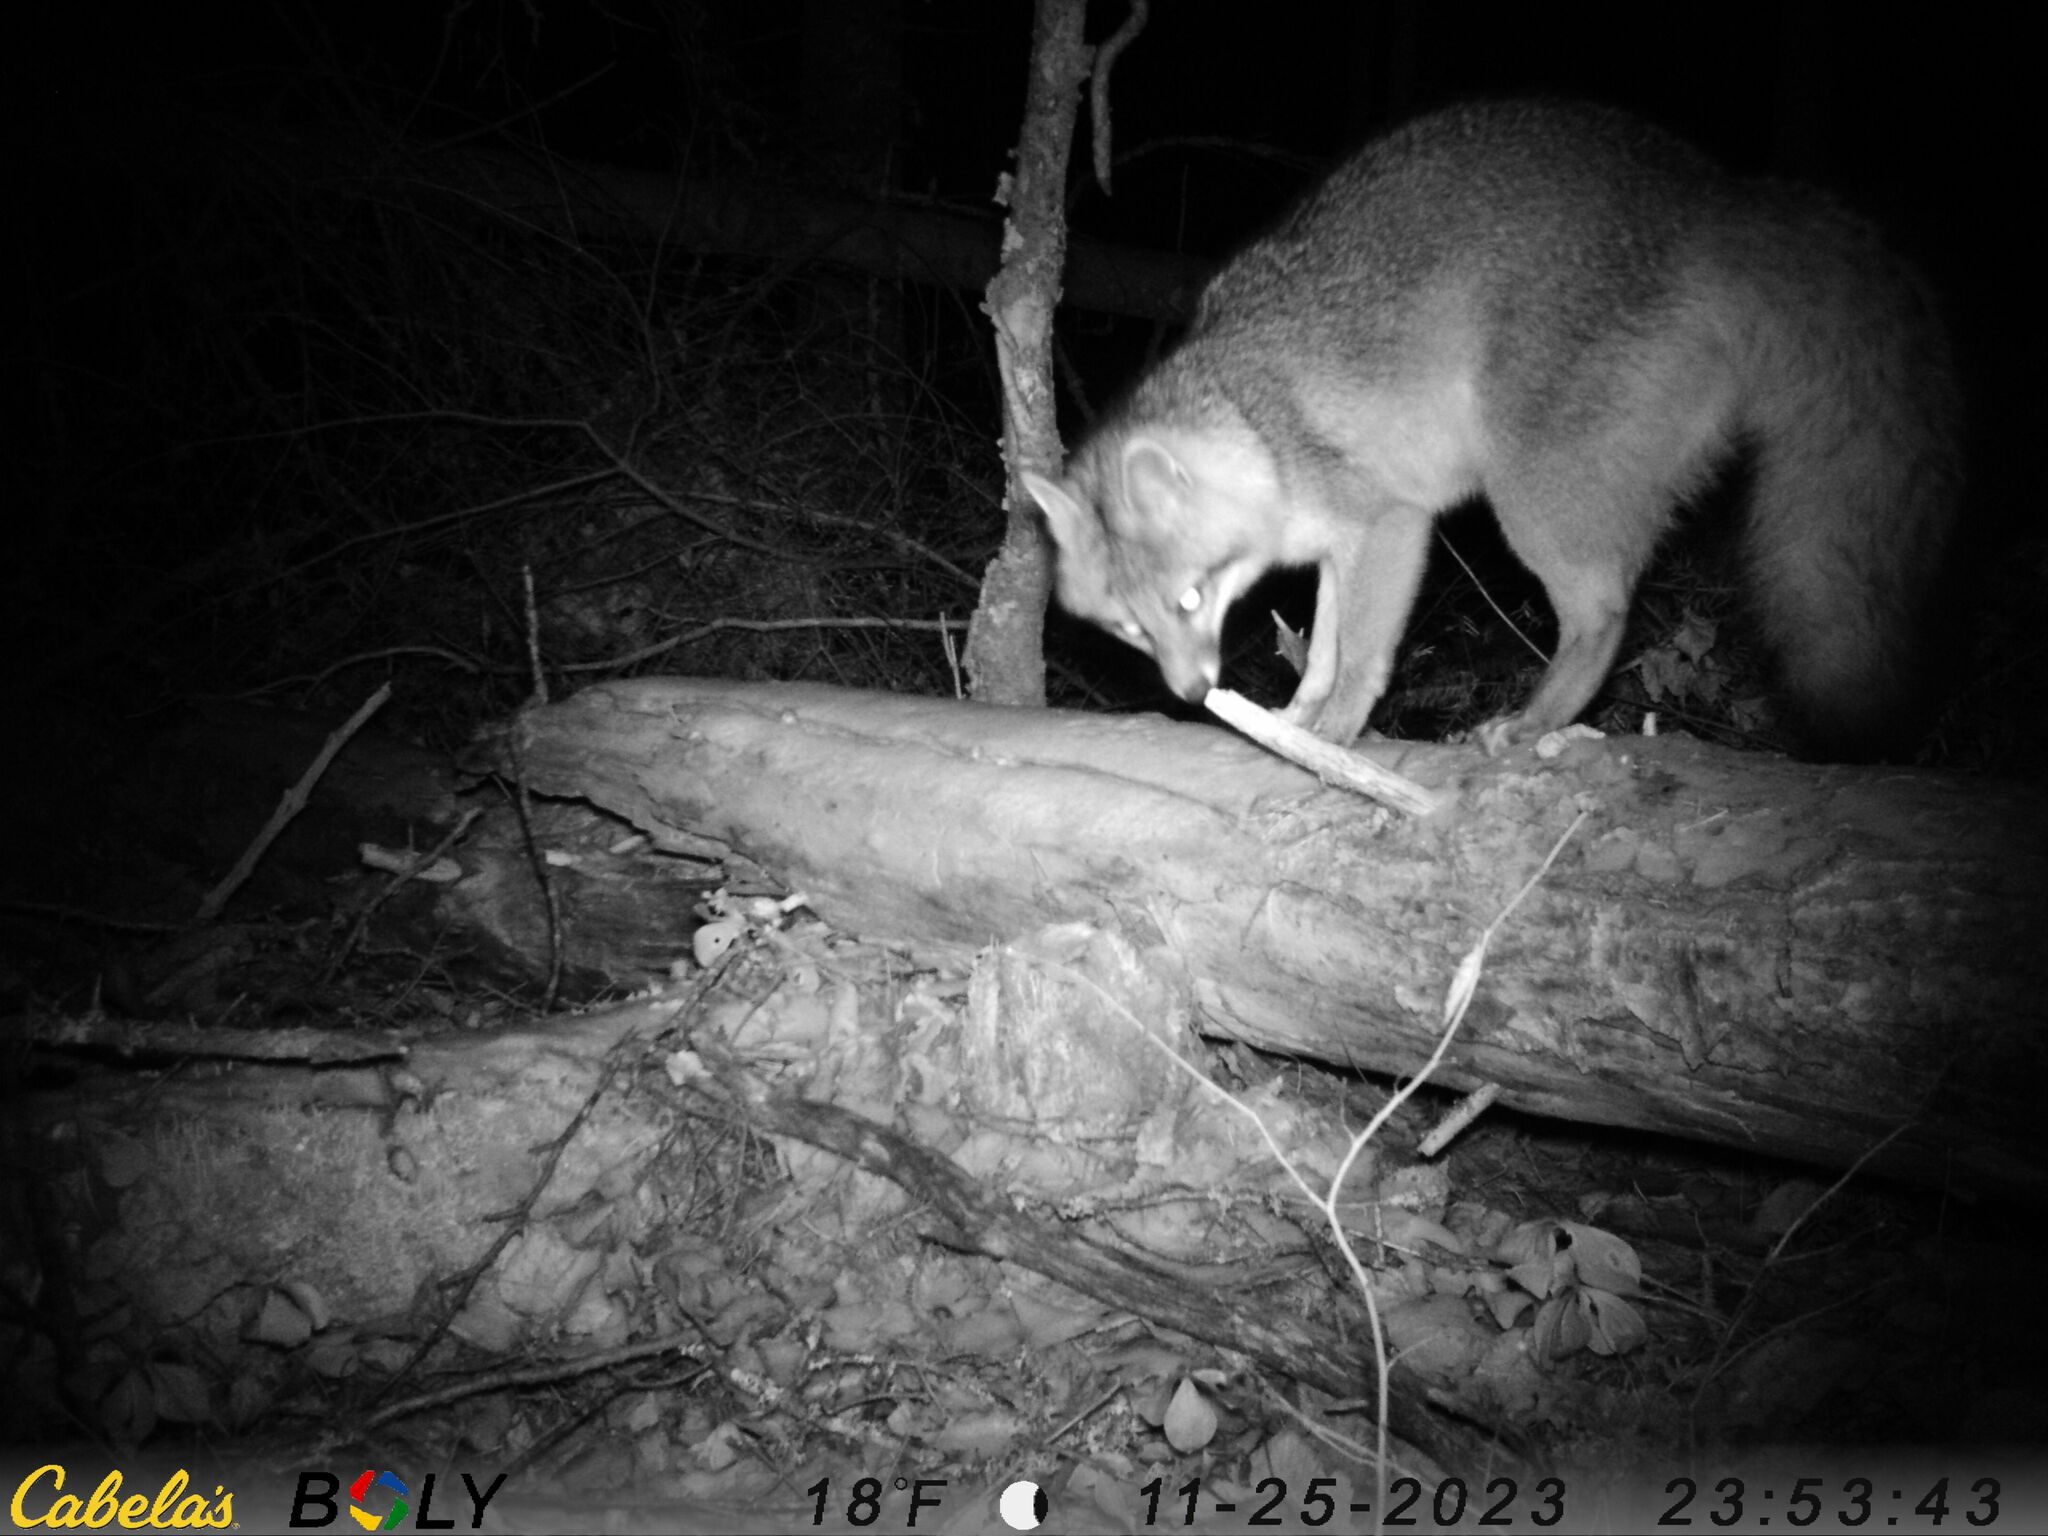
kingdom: Animalia
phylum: Chordata
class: Mammalia
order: Carnivora
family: Canidae
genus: Urocyon
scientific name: Urocyon cinereoargenteus
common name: Gray fox
